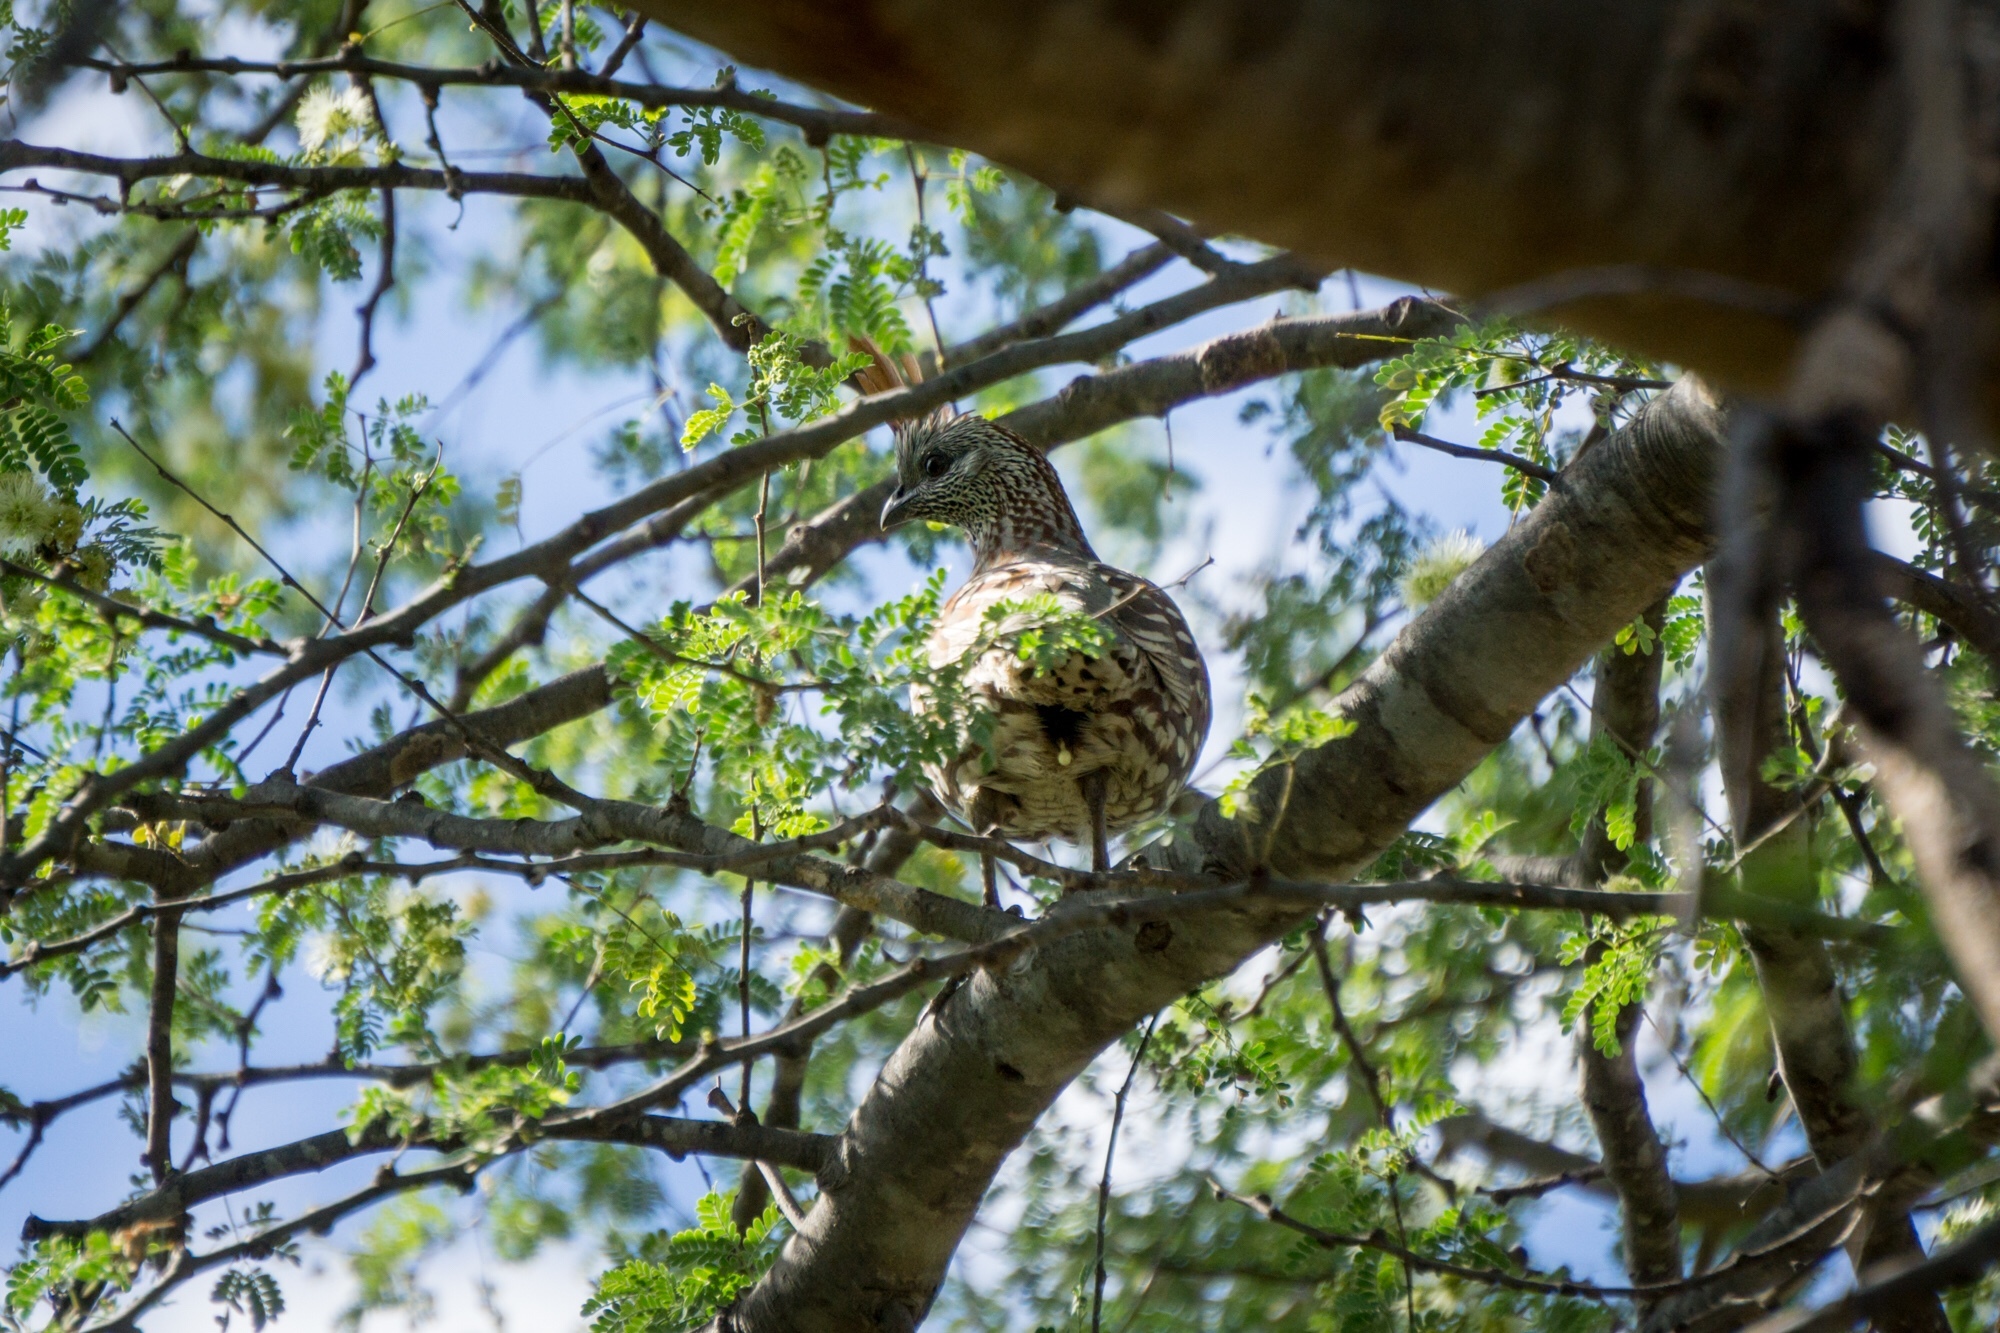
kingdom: Animalia
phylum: Chordata
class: Aves
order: Galliformes
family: Odontophoridae
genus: Callipepla
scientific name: Callipepla douglasii
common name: Elegant quail
